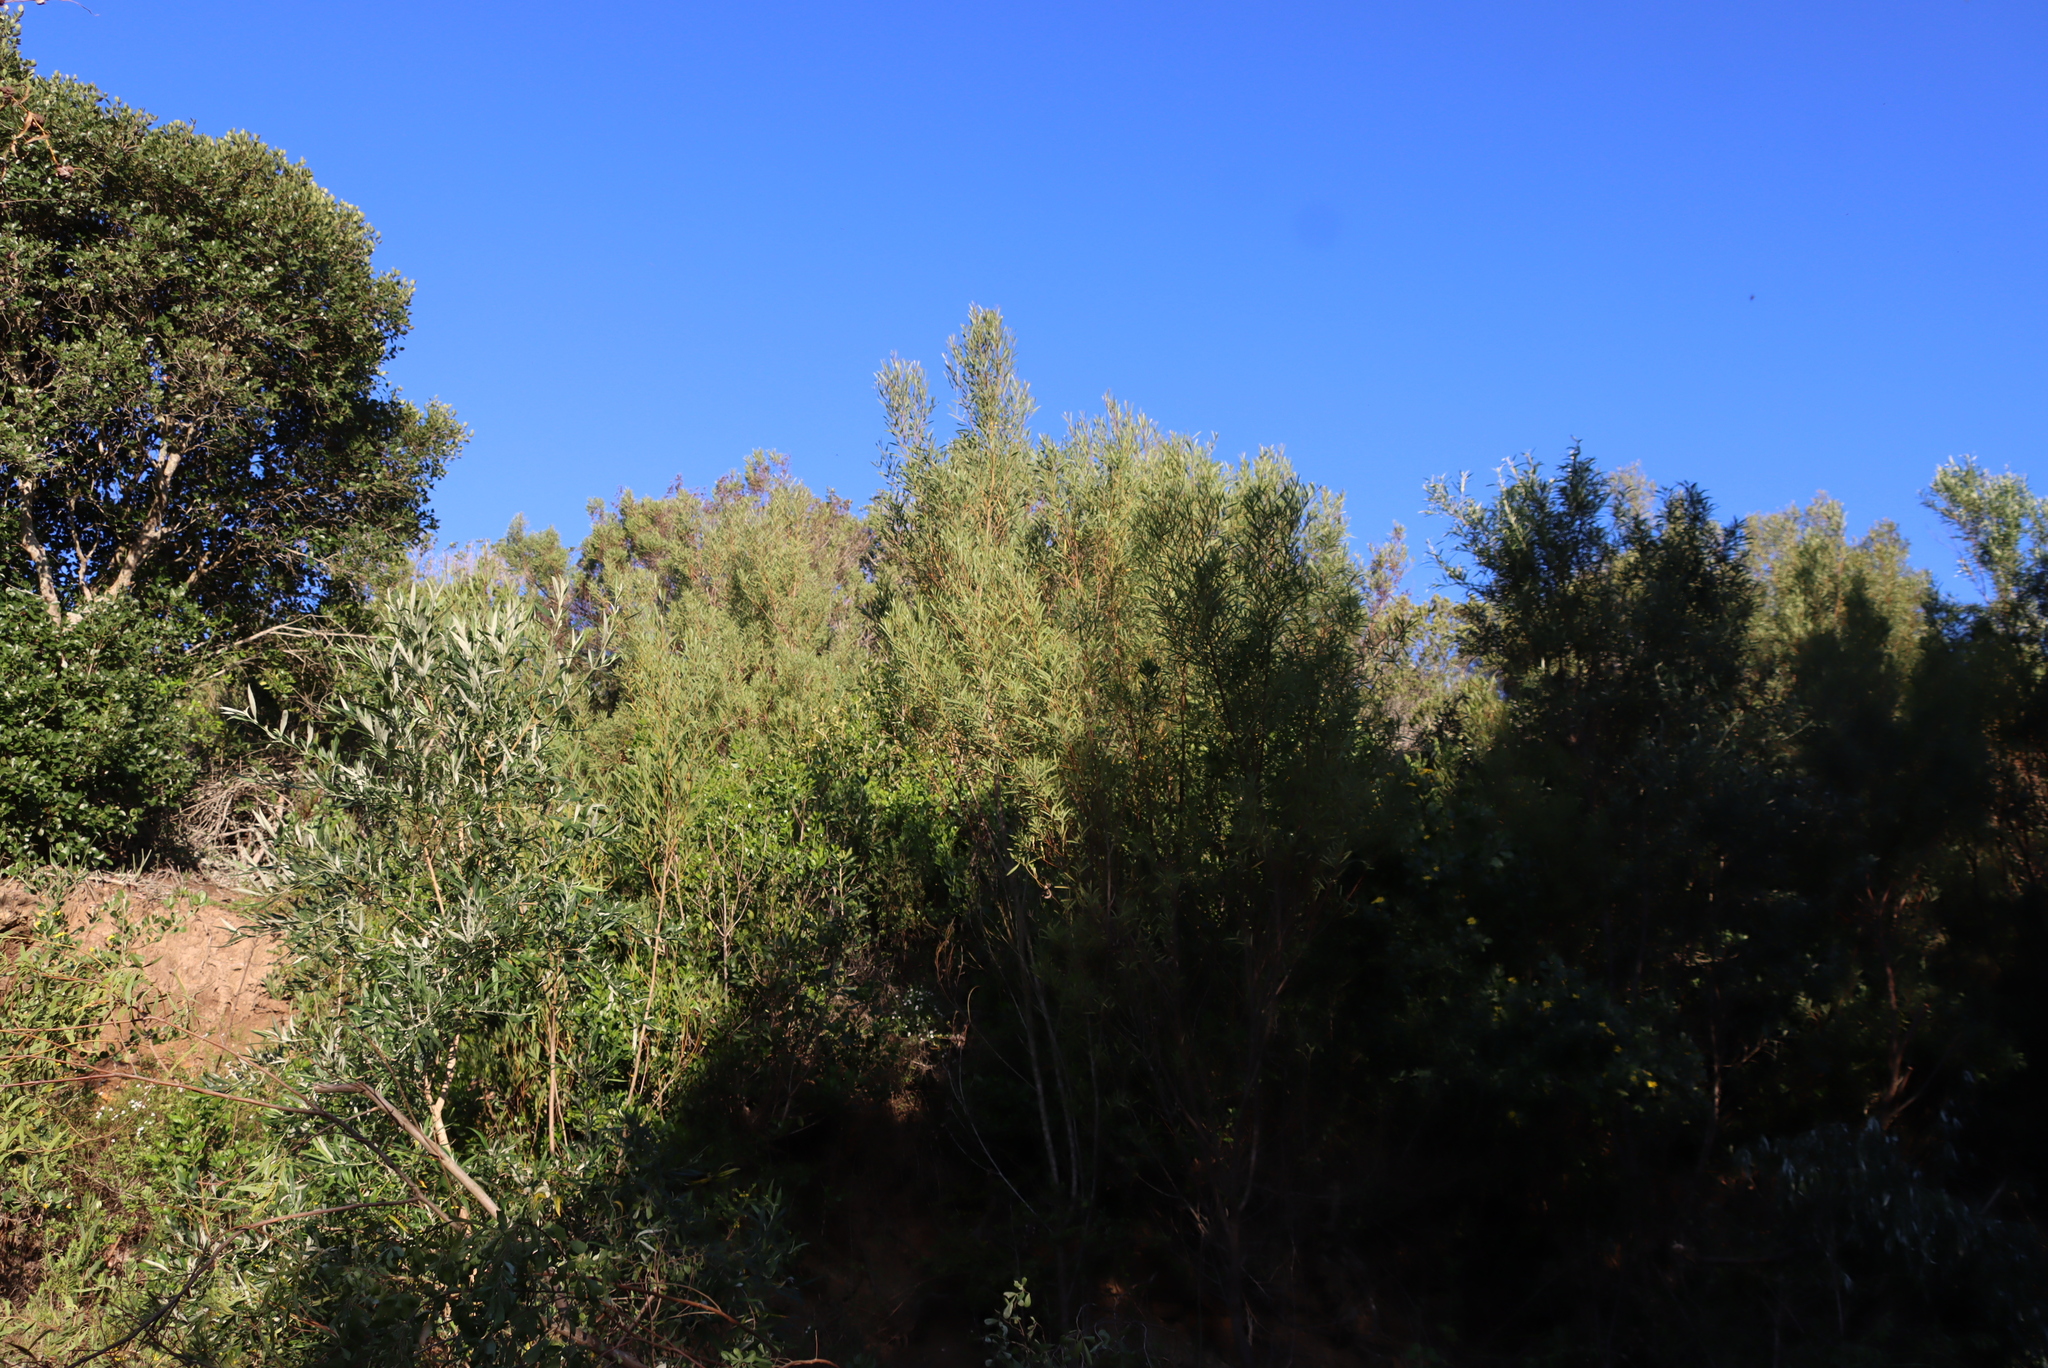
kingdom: Plantae
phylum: Tracheophyta
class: Magnoliopsida
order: Fabales
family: Fabaceae
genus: Acacia
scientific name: Acacia cyclops
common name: Coastal wattle
